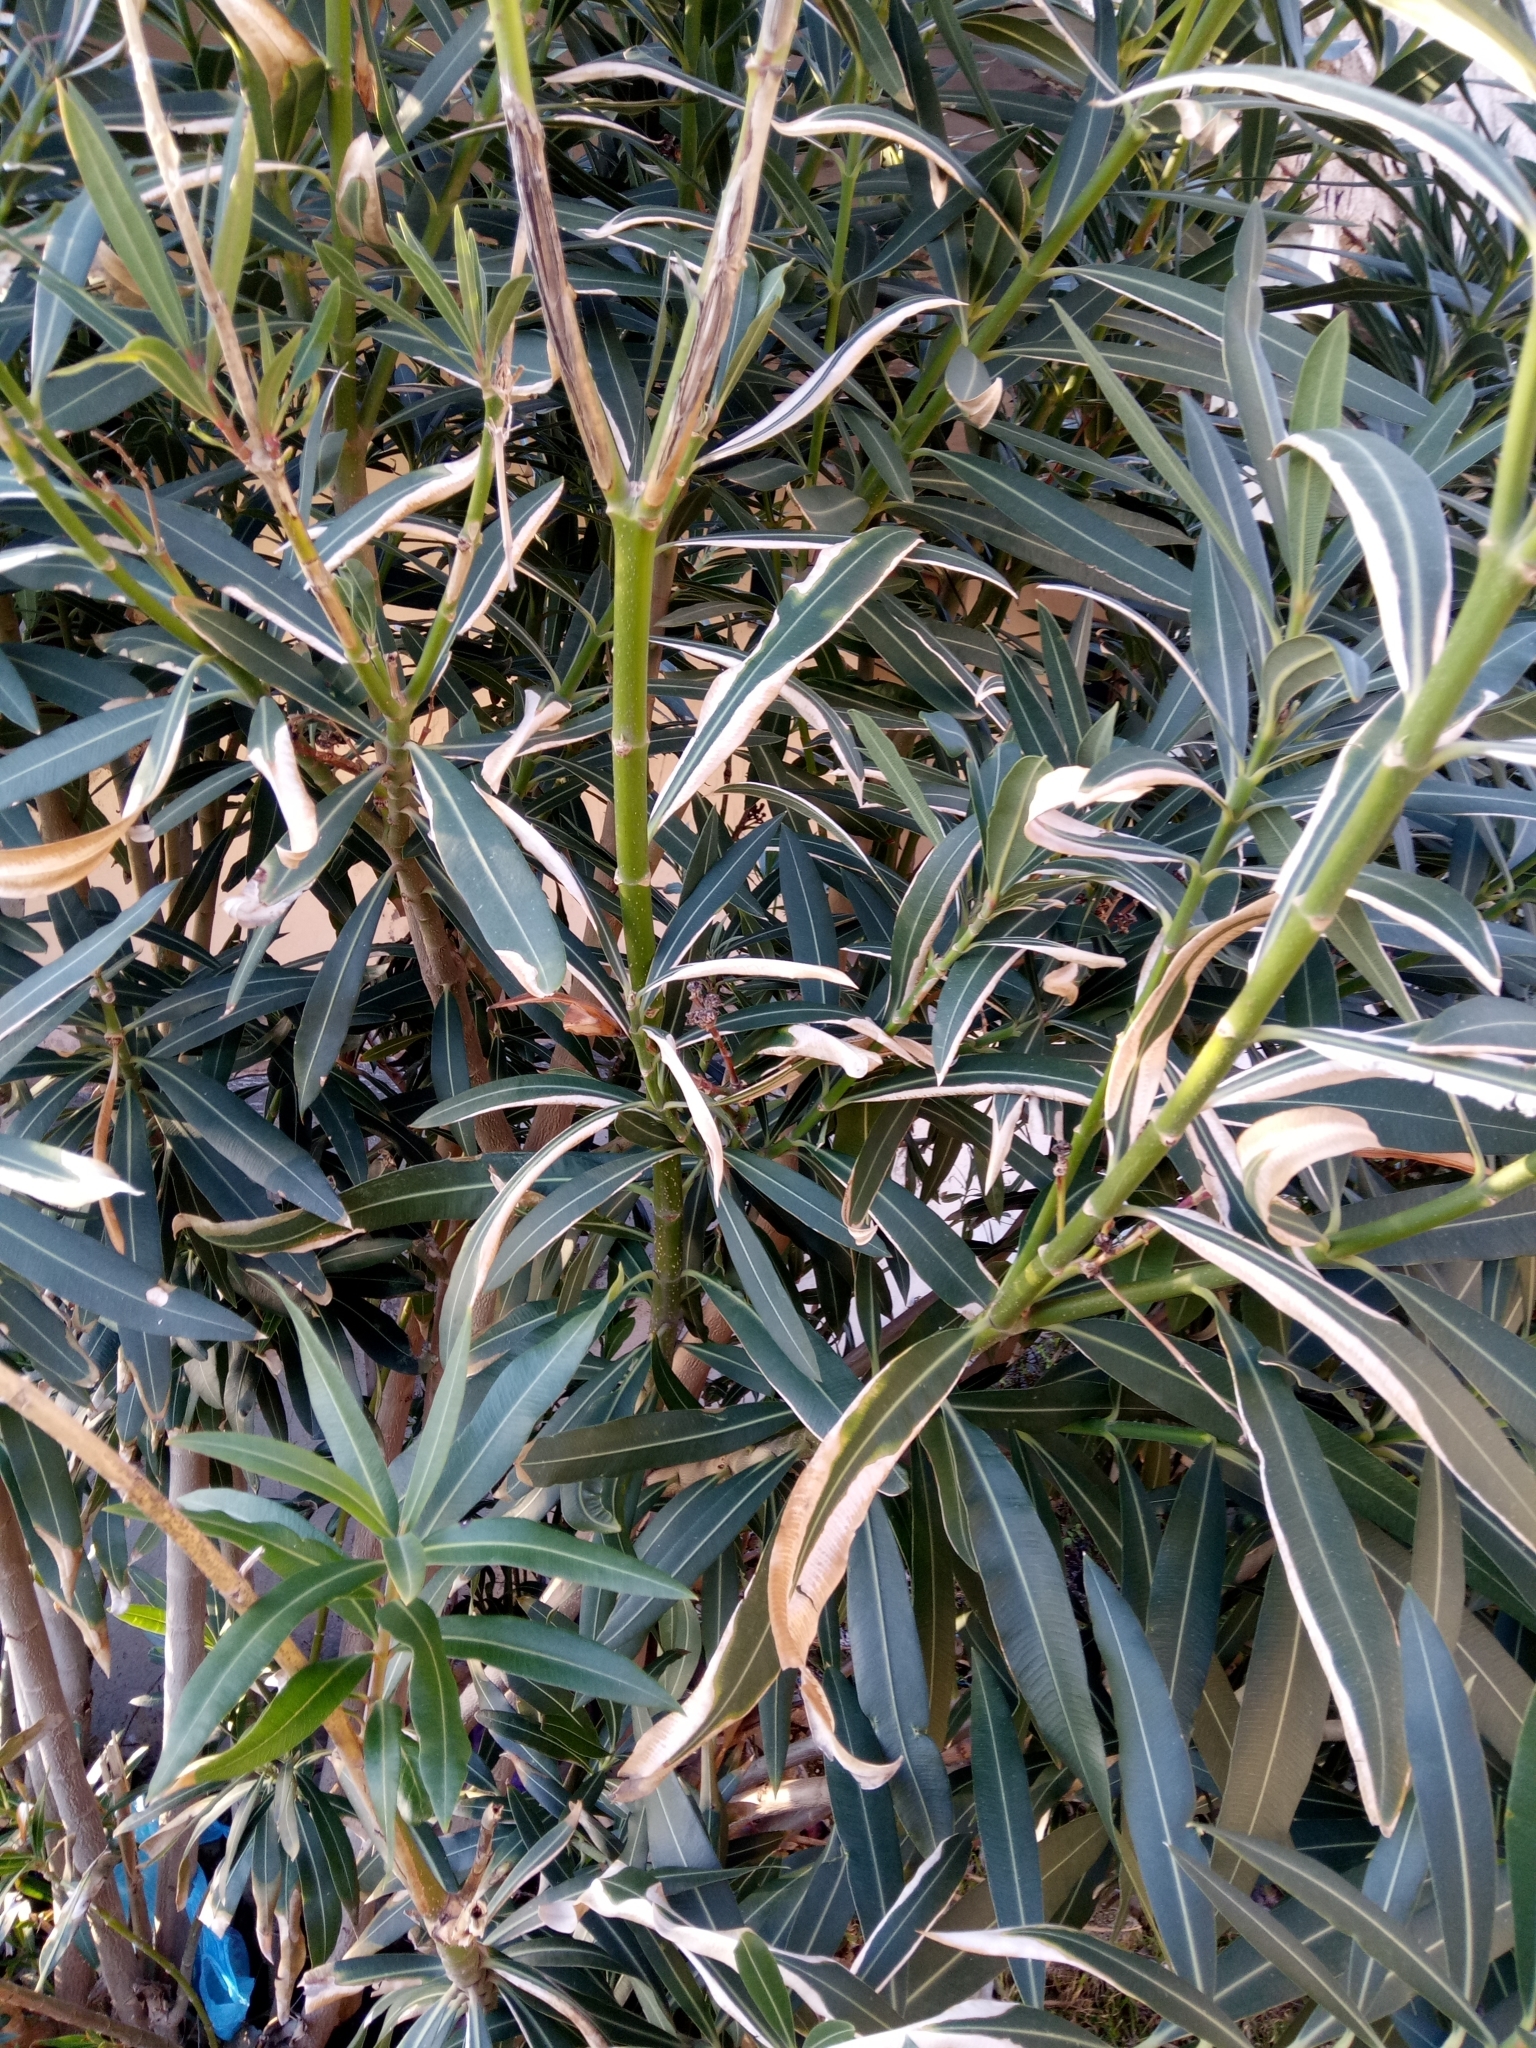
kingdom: Plantae
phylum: Tracheophyta
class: Magnoliopsida
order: Gentianales
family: Apocynaceae
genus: Nerium
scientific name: Nerium oleander
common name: Oleander
